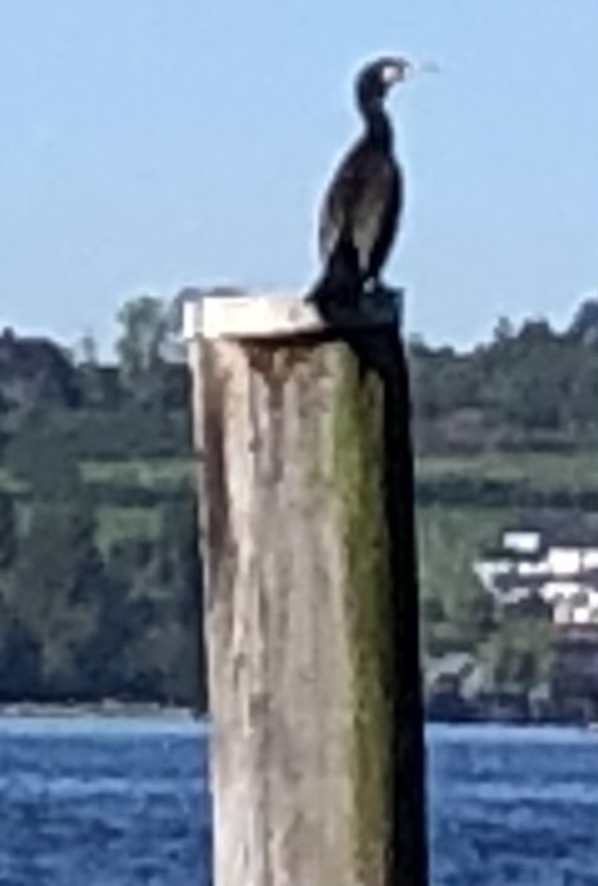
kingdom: Animalia
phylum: Chordata
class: Aves
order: Suliformes
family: Phalacrocoracidae
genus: Phalacrocorax
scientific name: Phalacrocorax carbo
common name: Great cormorant
